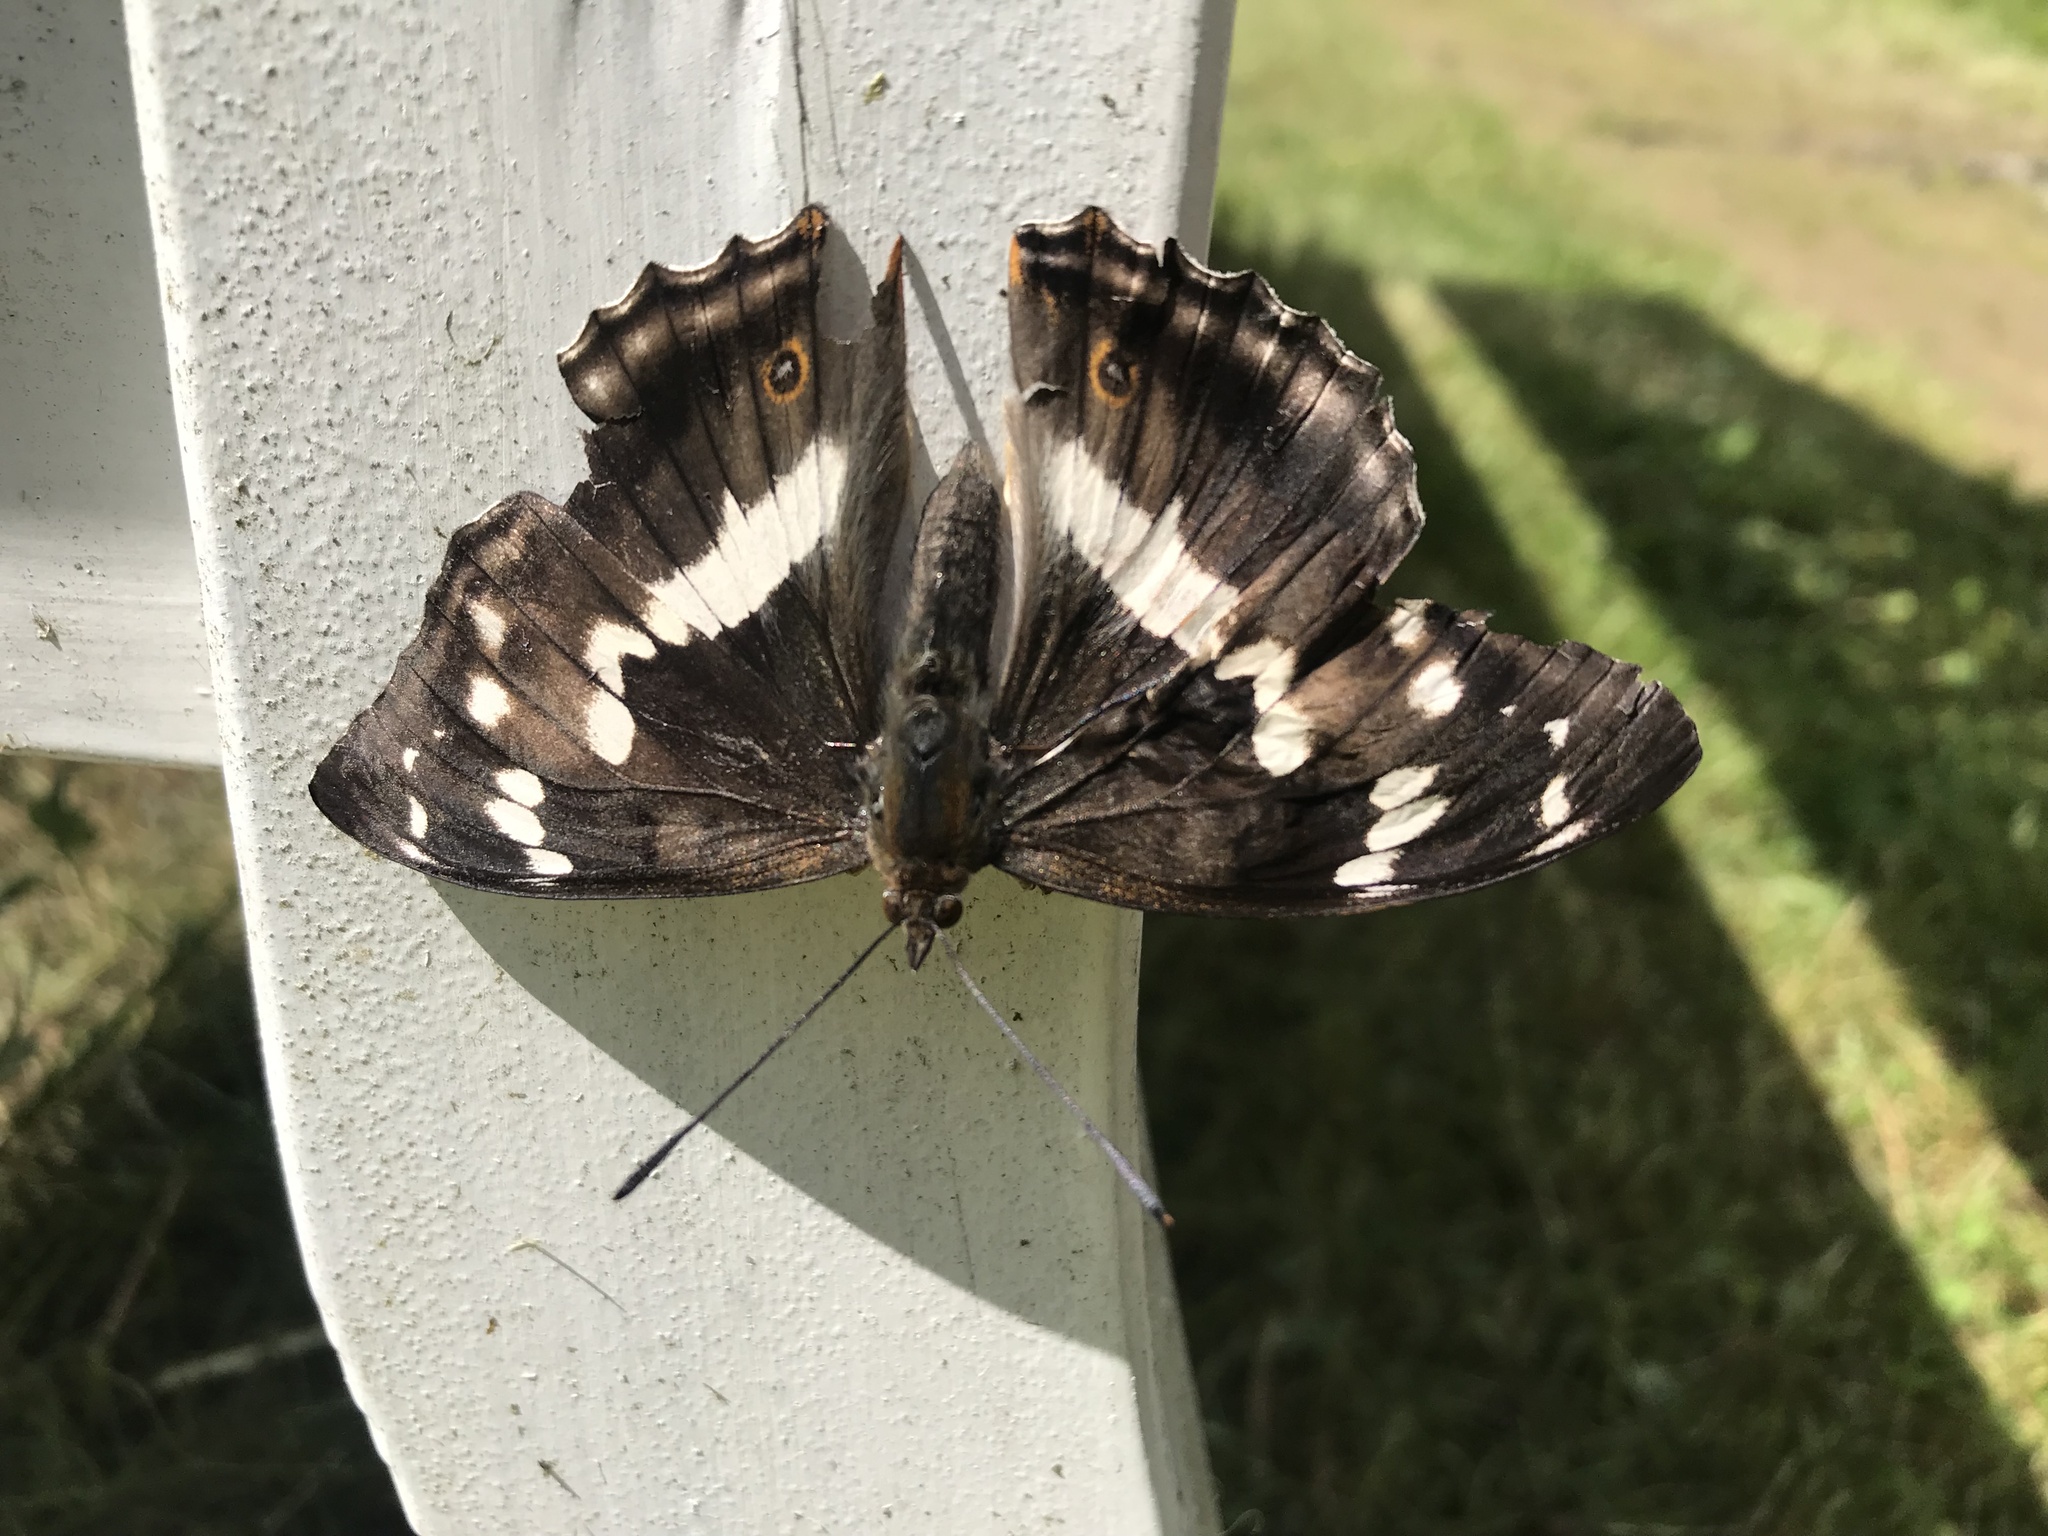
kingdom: Animalia
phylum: Arthropoda
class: Insecta
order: Lepidoptera
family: Nymphalidae
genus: Apatura
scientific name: Apatura iris
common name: Purple emperor
